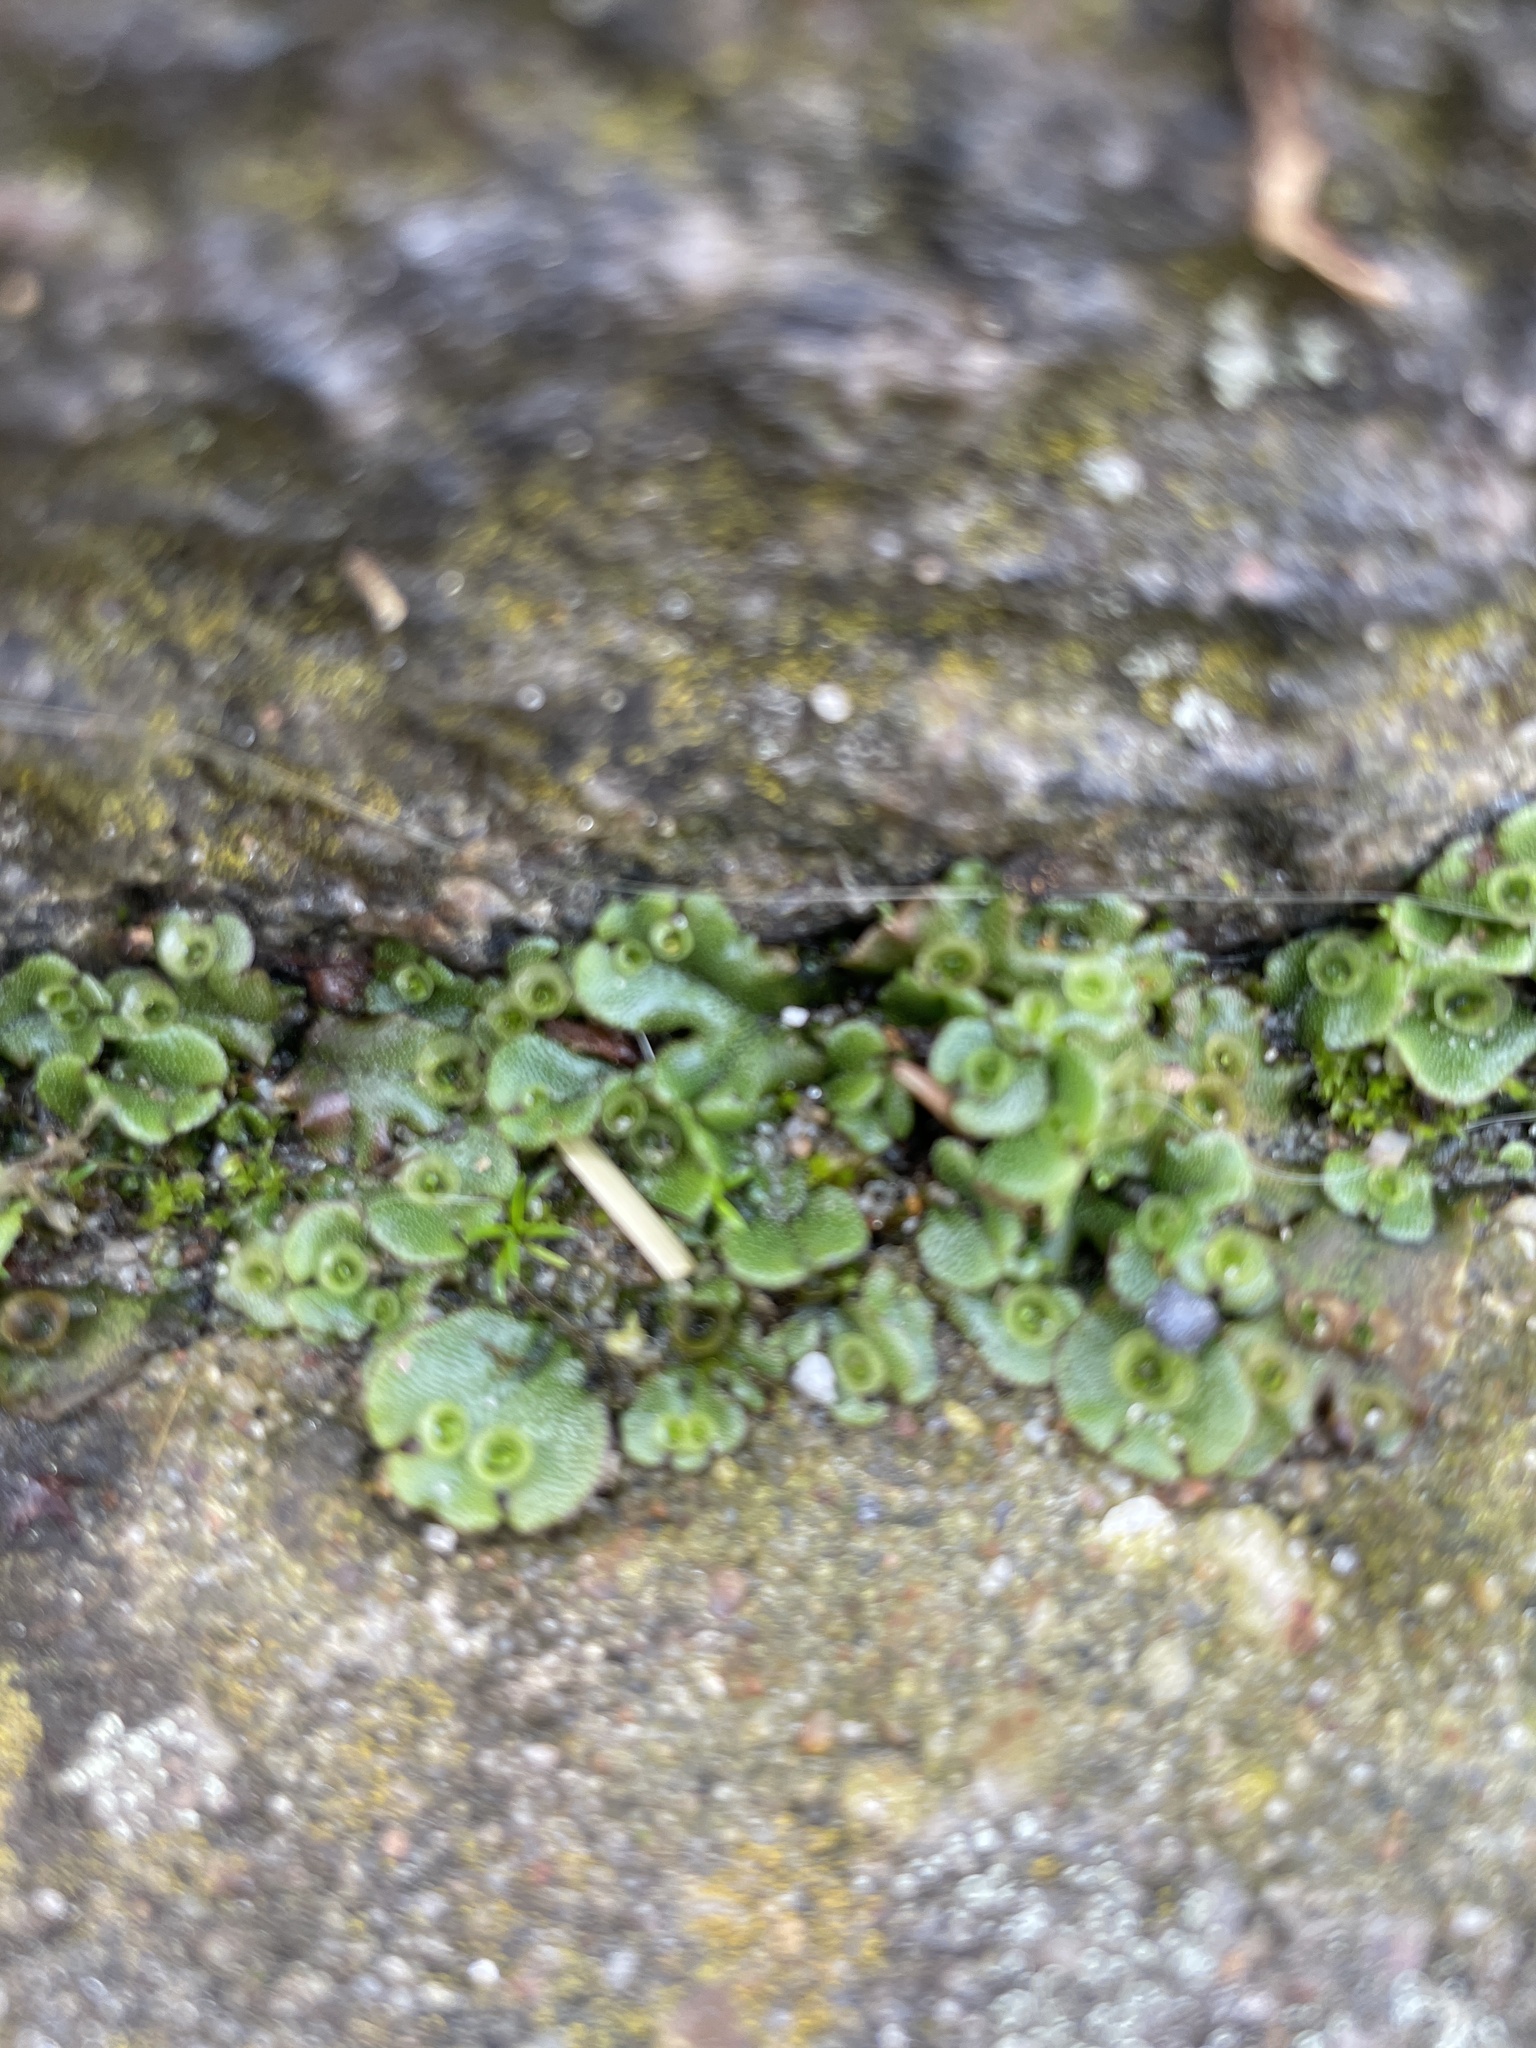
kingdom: Plantae
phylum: Marchantiophyta
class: Marchantiopsida
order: Marchantiales
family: Marchantiaceae
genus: Marchantia
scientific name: Marchantia polymorpha
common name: Common liverwort
